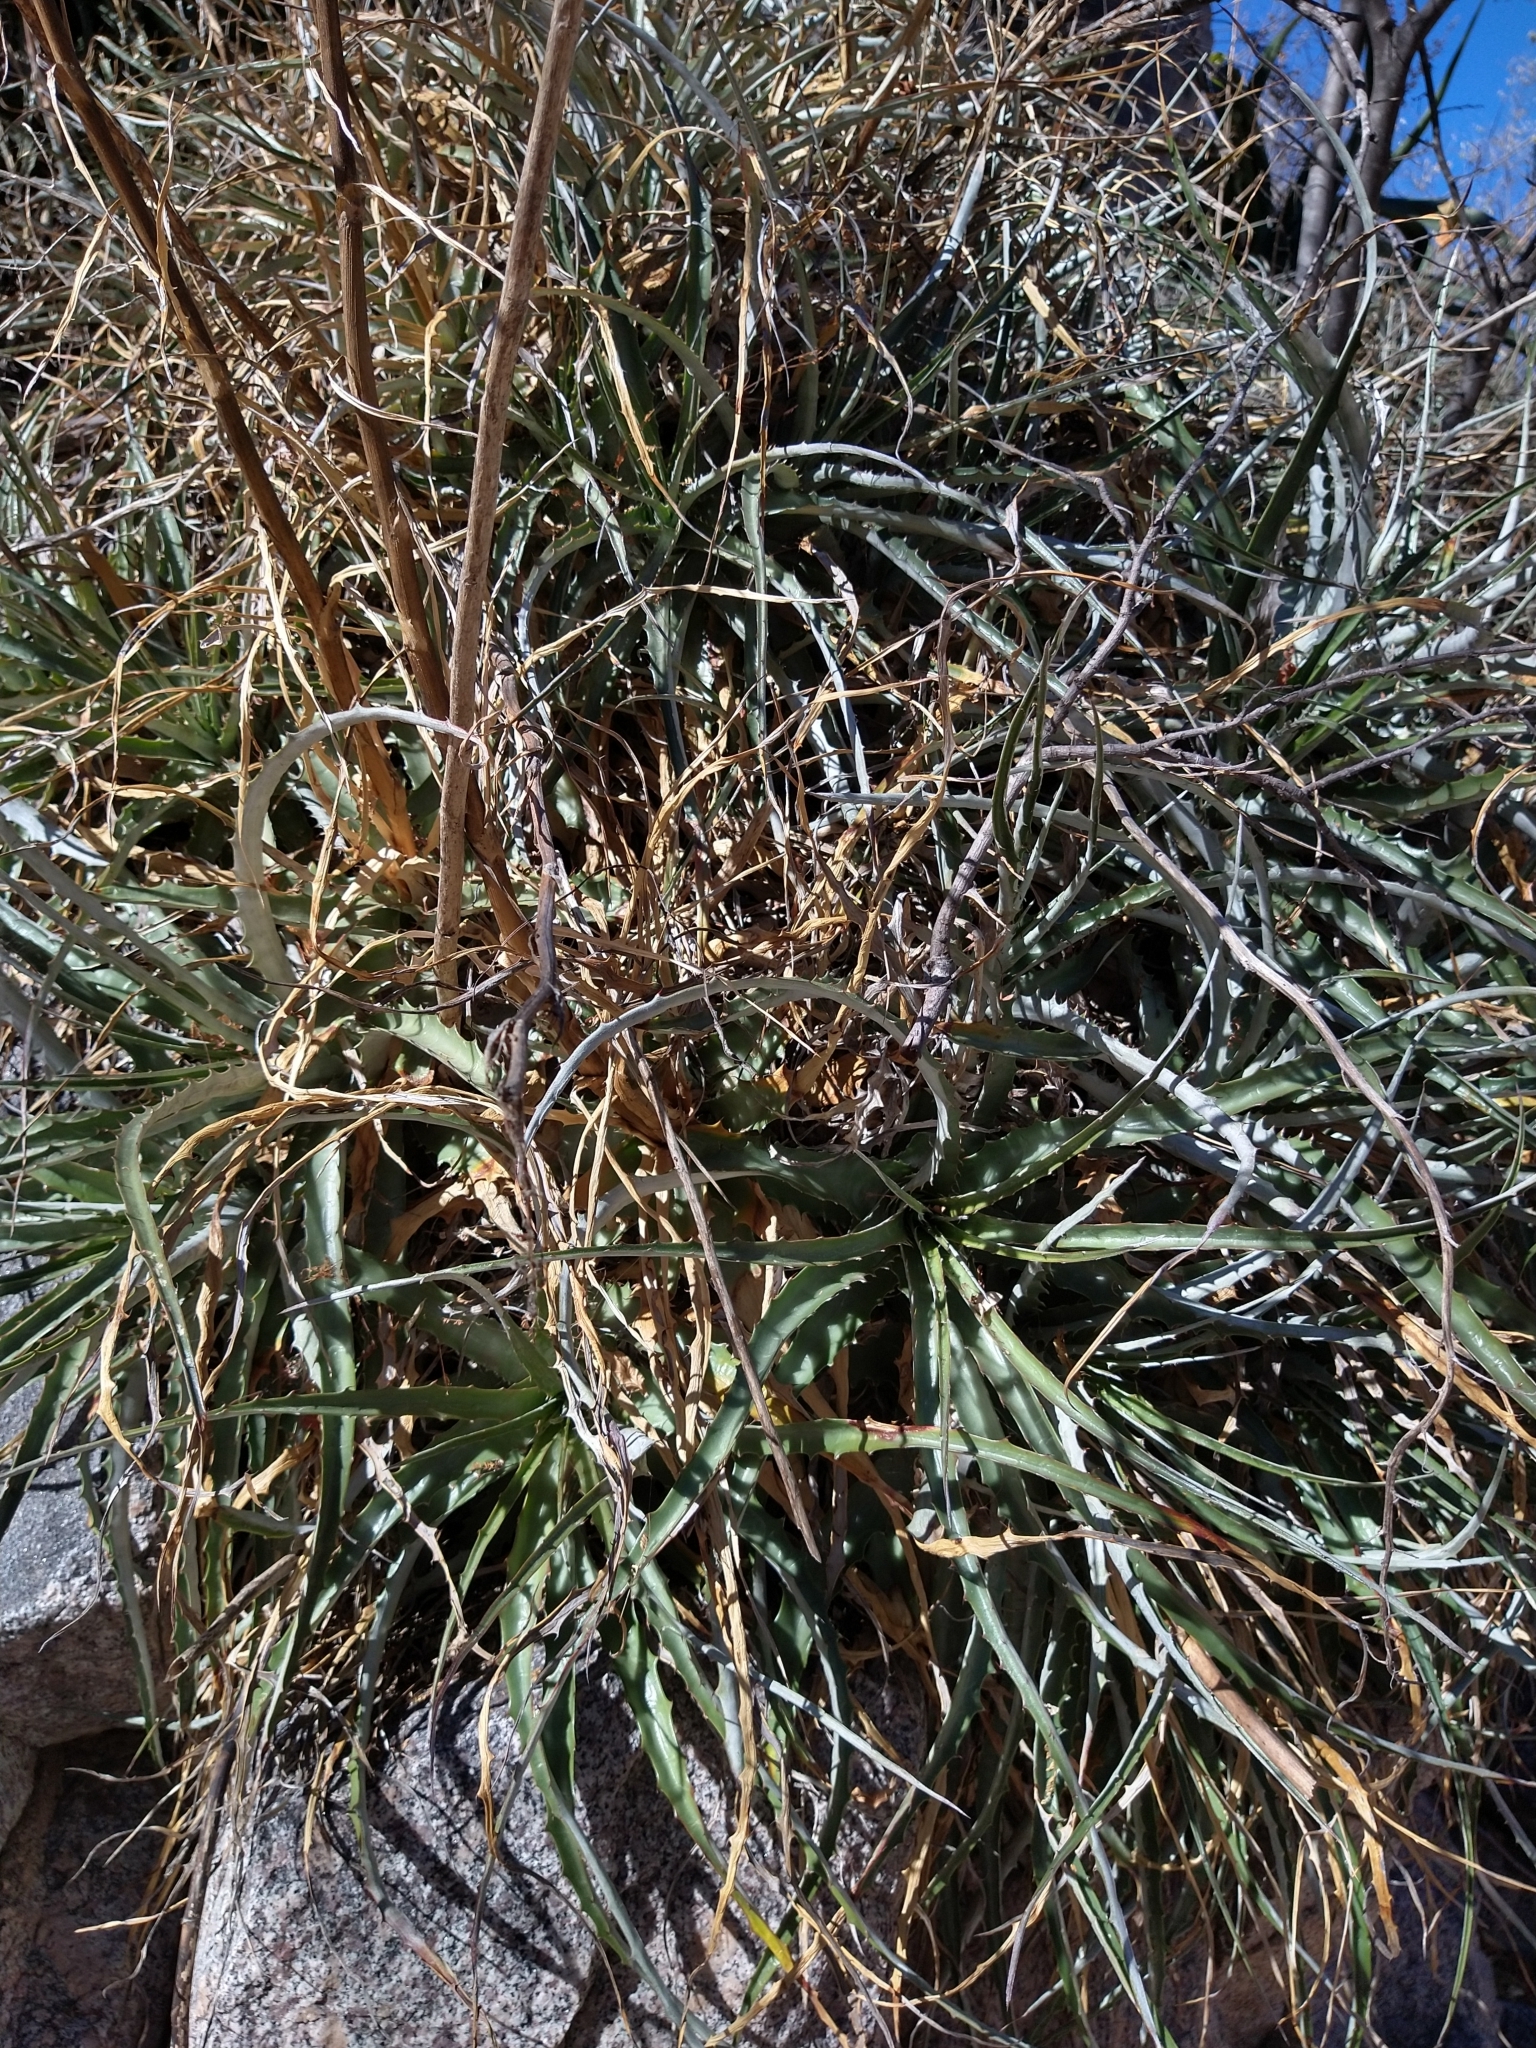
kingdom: Plantae
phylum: Tracheophyta
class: Liliopsida
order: Poales
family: Bromeliaceae
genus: Hechtia
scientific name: Hechtia montana
